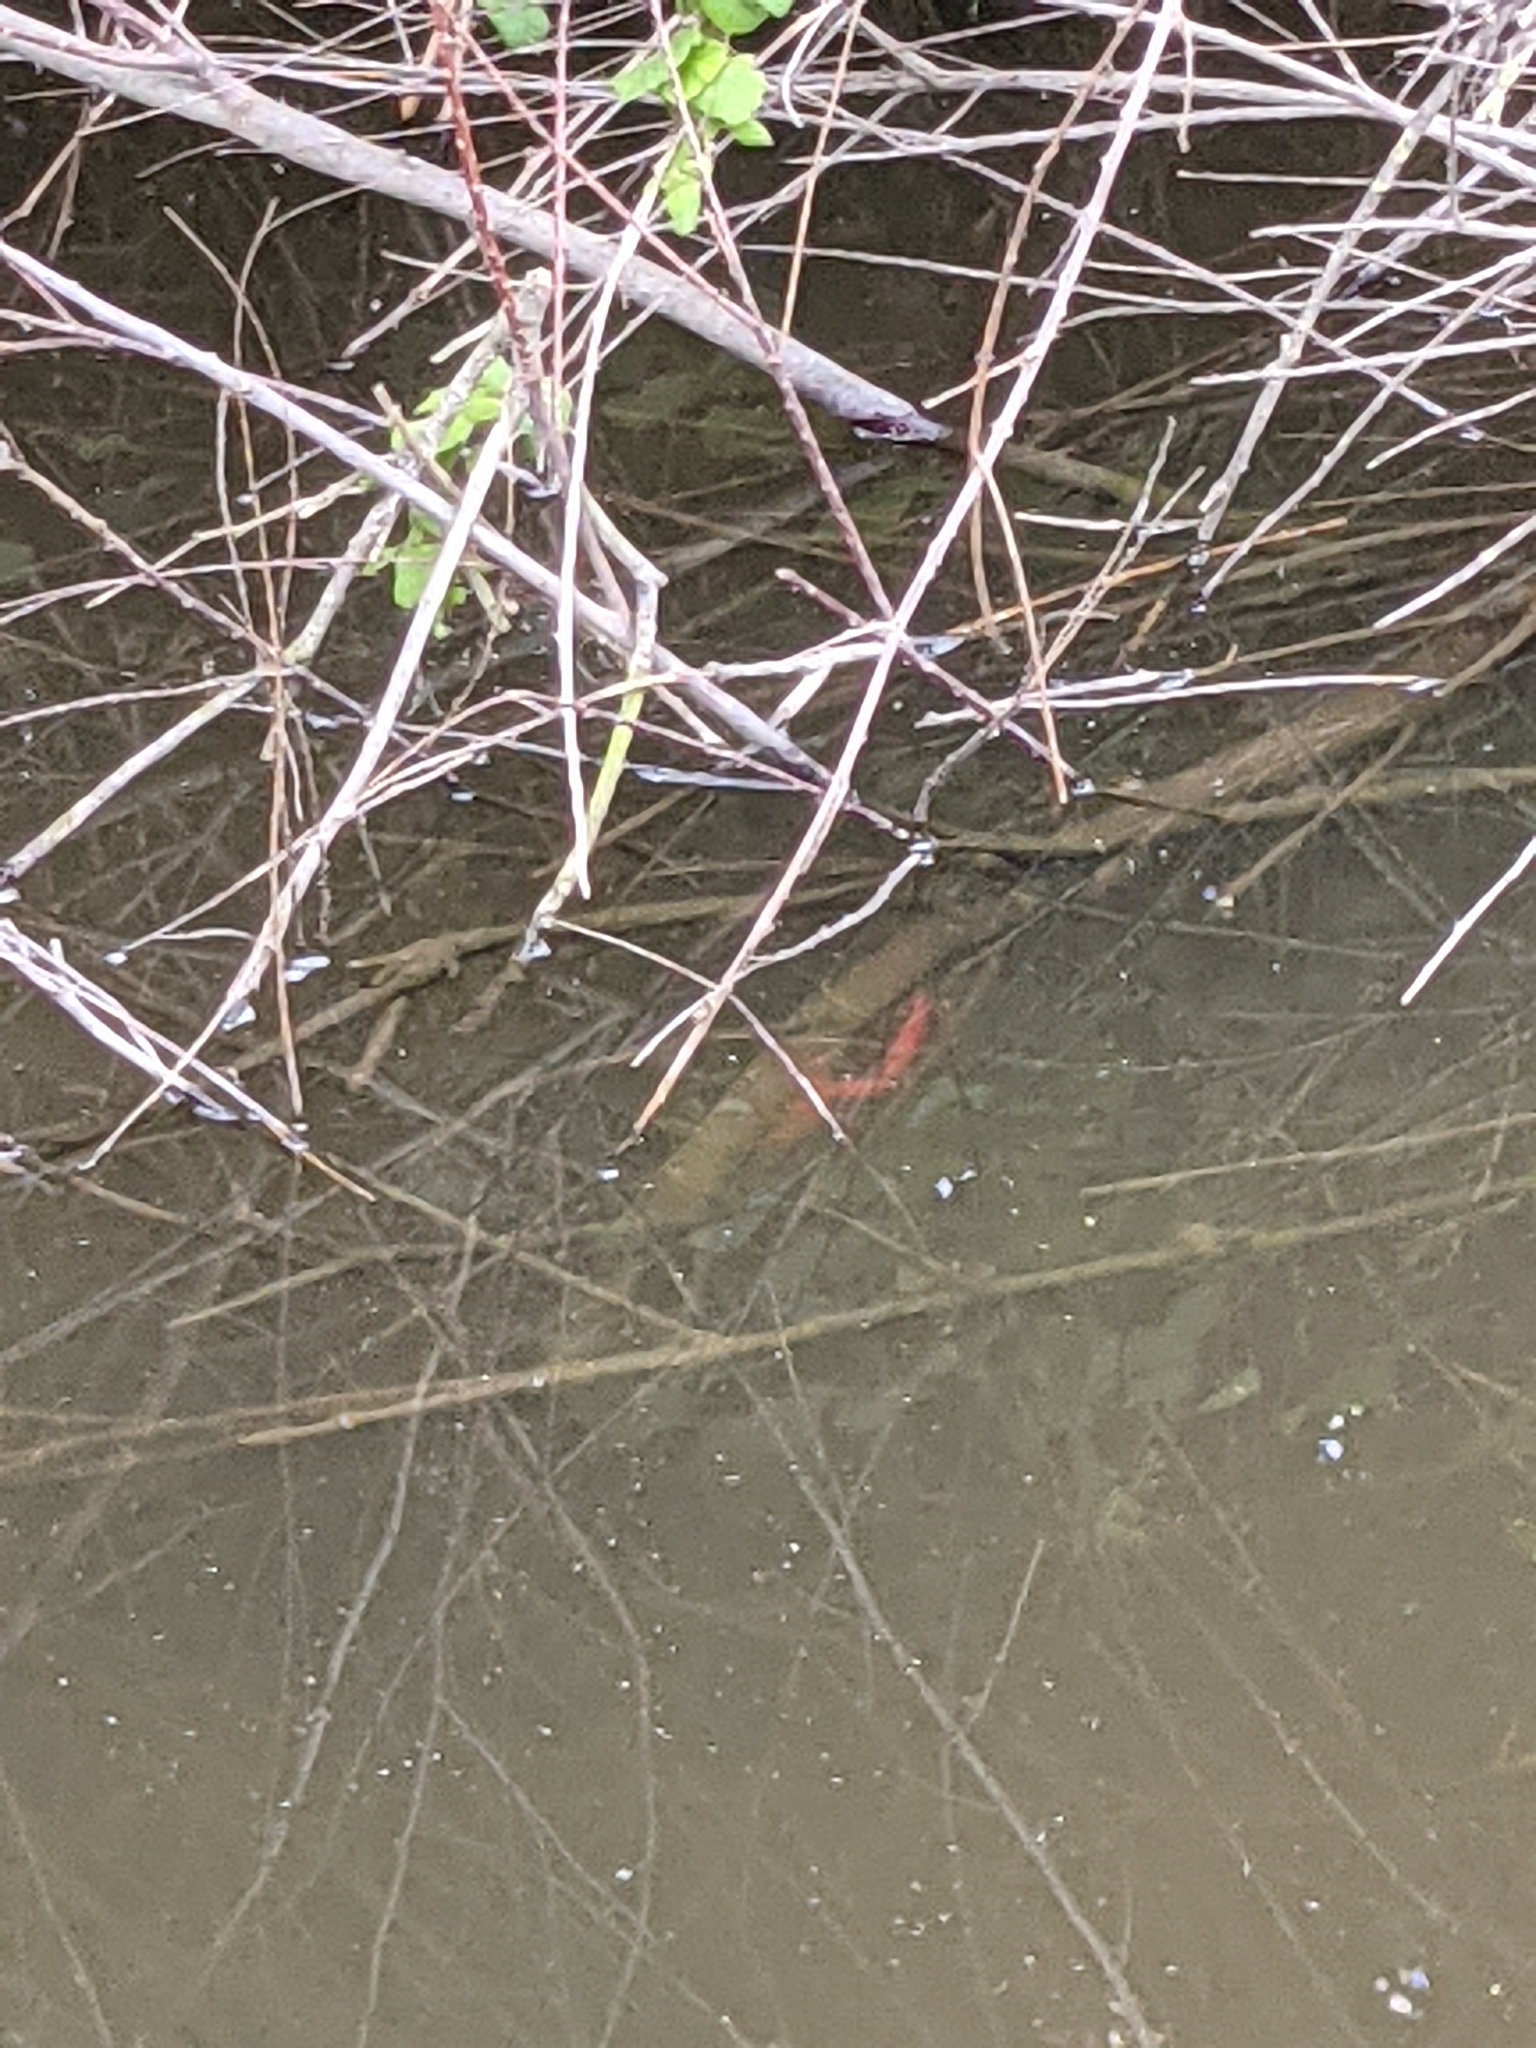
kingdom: Animalia
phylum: Arthropoda
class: Malacostraca
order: Decapoda
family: Cambaridae
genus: Procambarus
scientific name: Procambarus clarkii
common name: Red swamp crayfish
